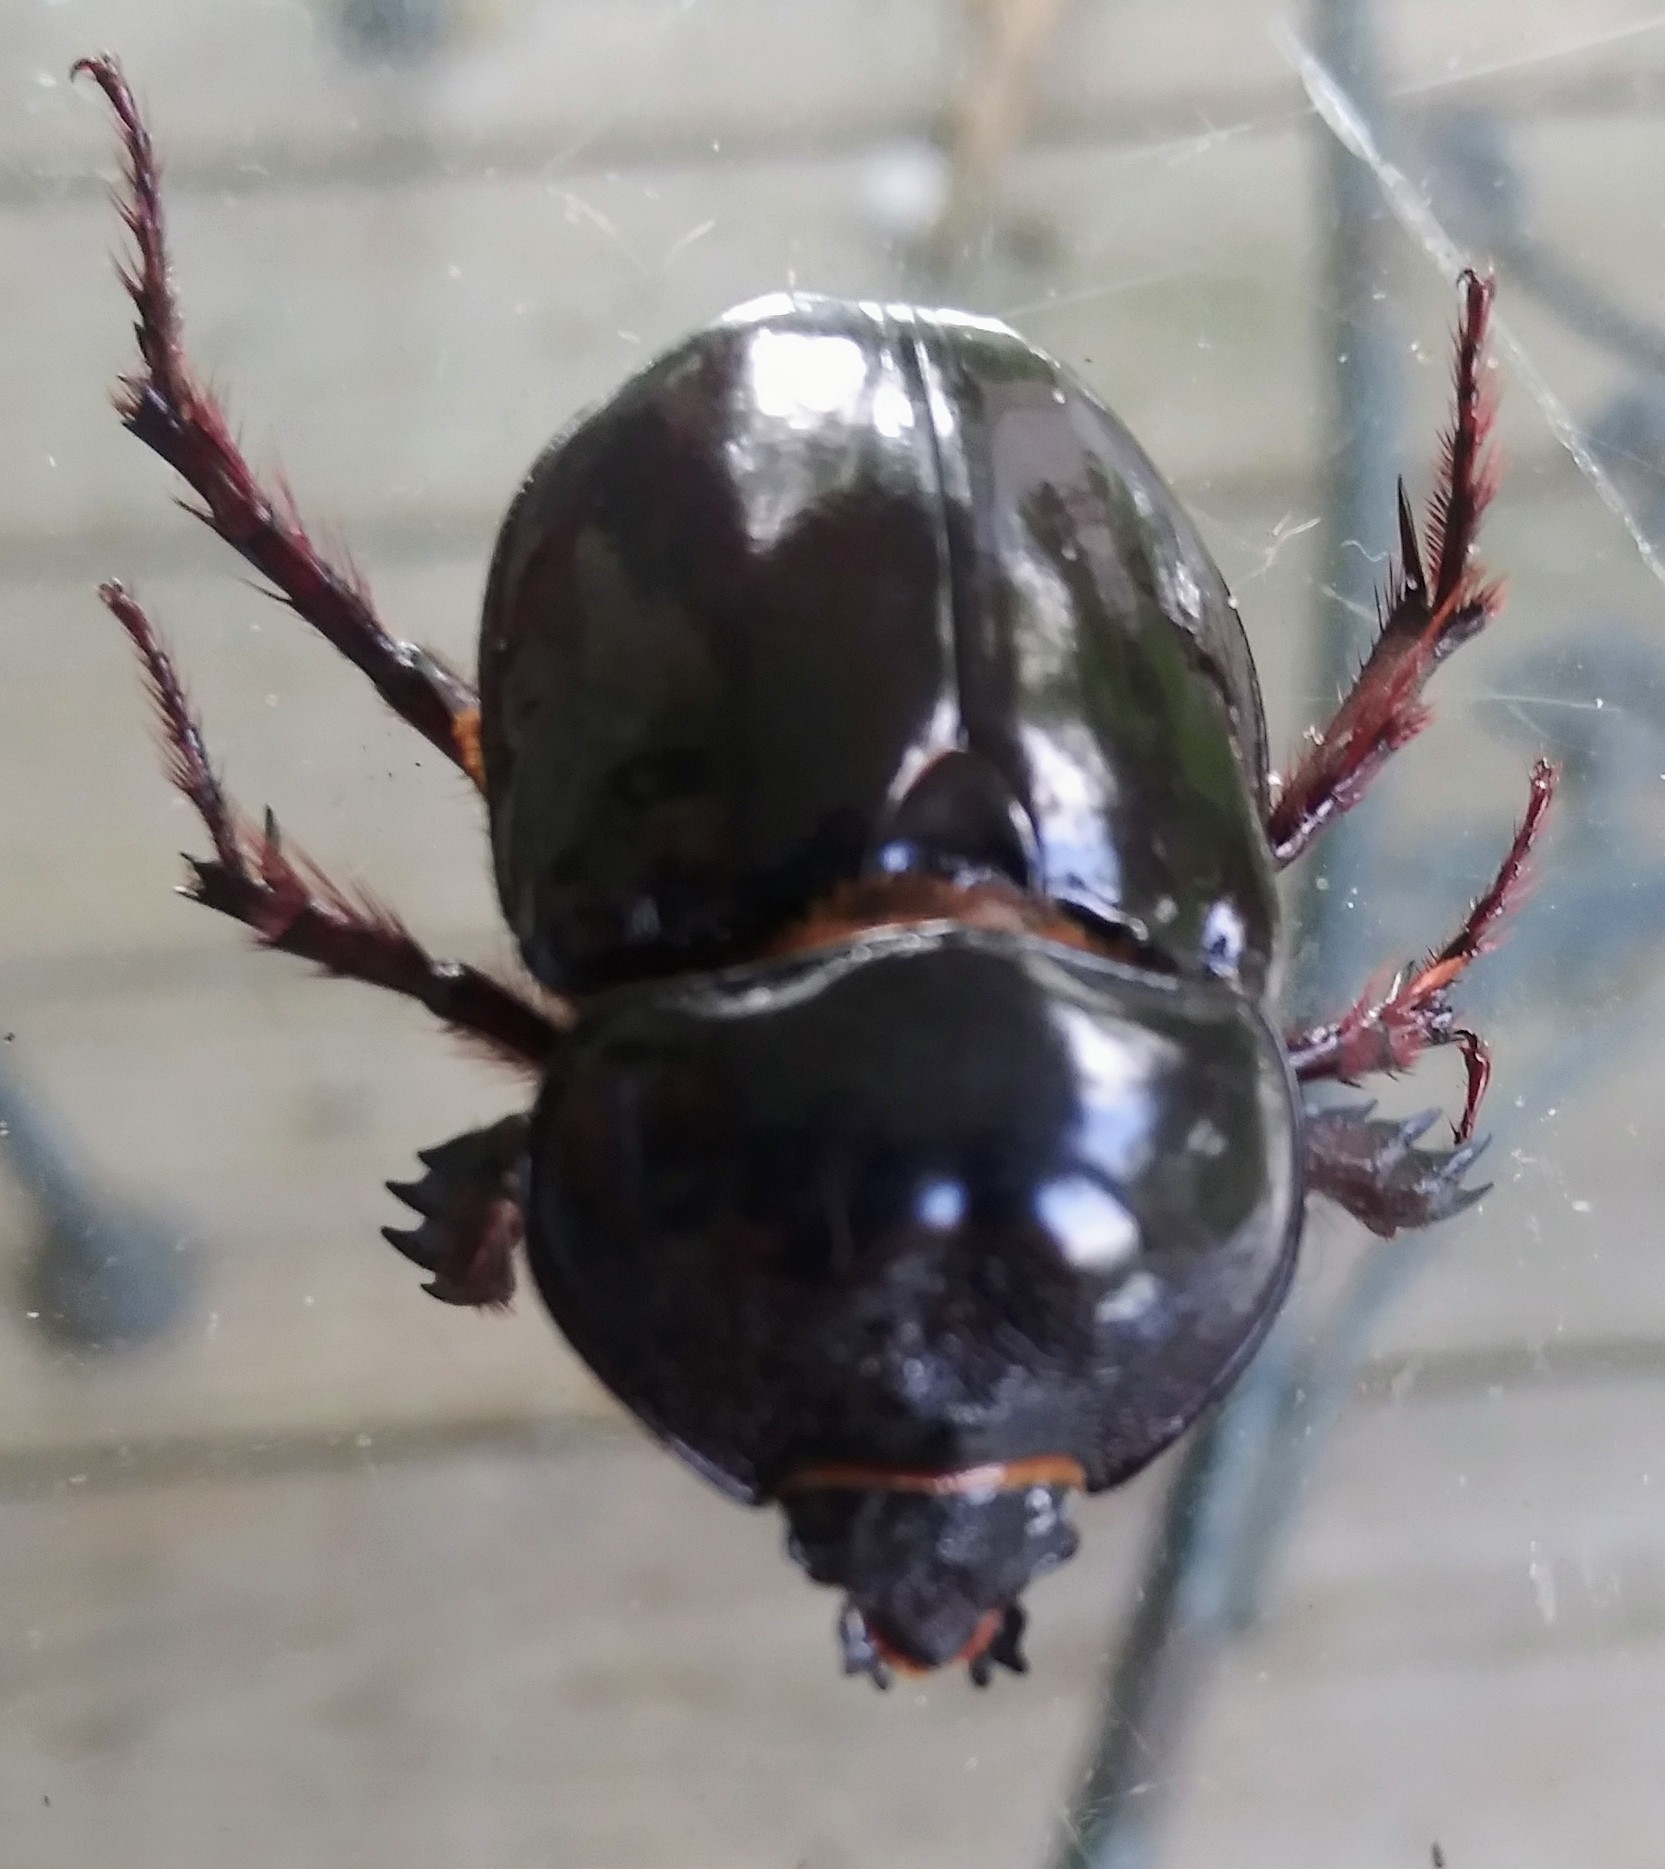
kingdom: Animalia
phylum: Arthropoda
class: Insecta
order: Coleoptera
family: Scarabaeidae
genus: Strategus
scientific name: Strategus antaeus
